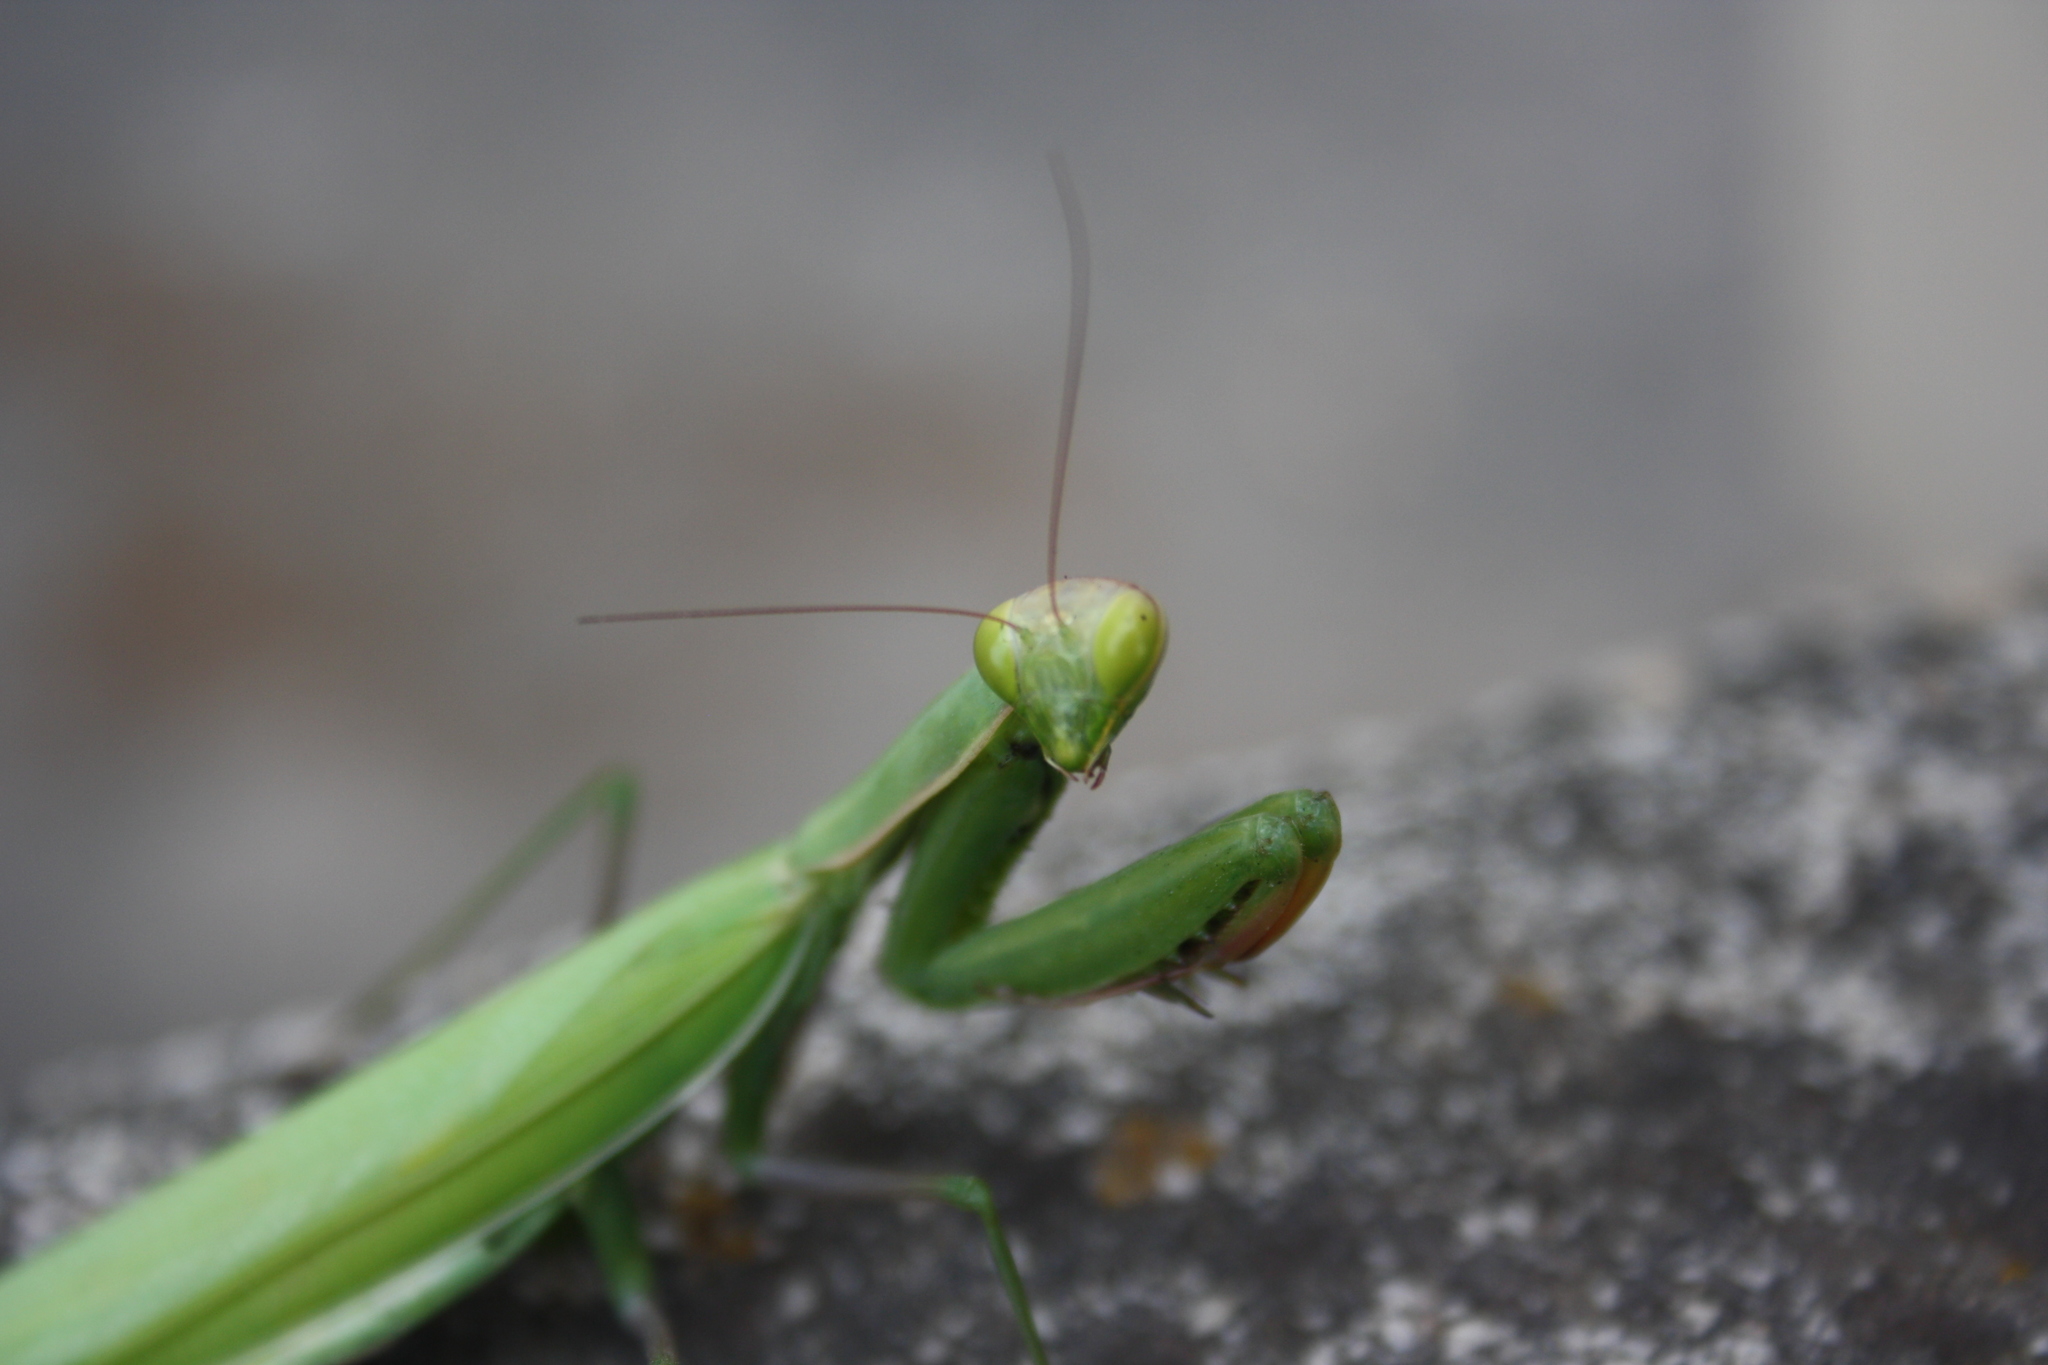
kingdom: Animalia
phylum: Arthropoda
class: Insecta
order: Mantodea
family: Mantidae
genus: Mantis
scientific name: Mantis religiosa
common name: Praying mantis
